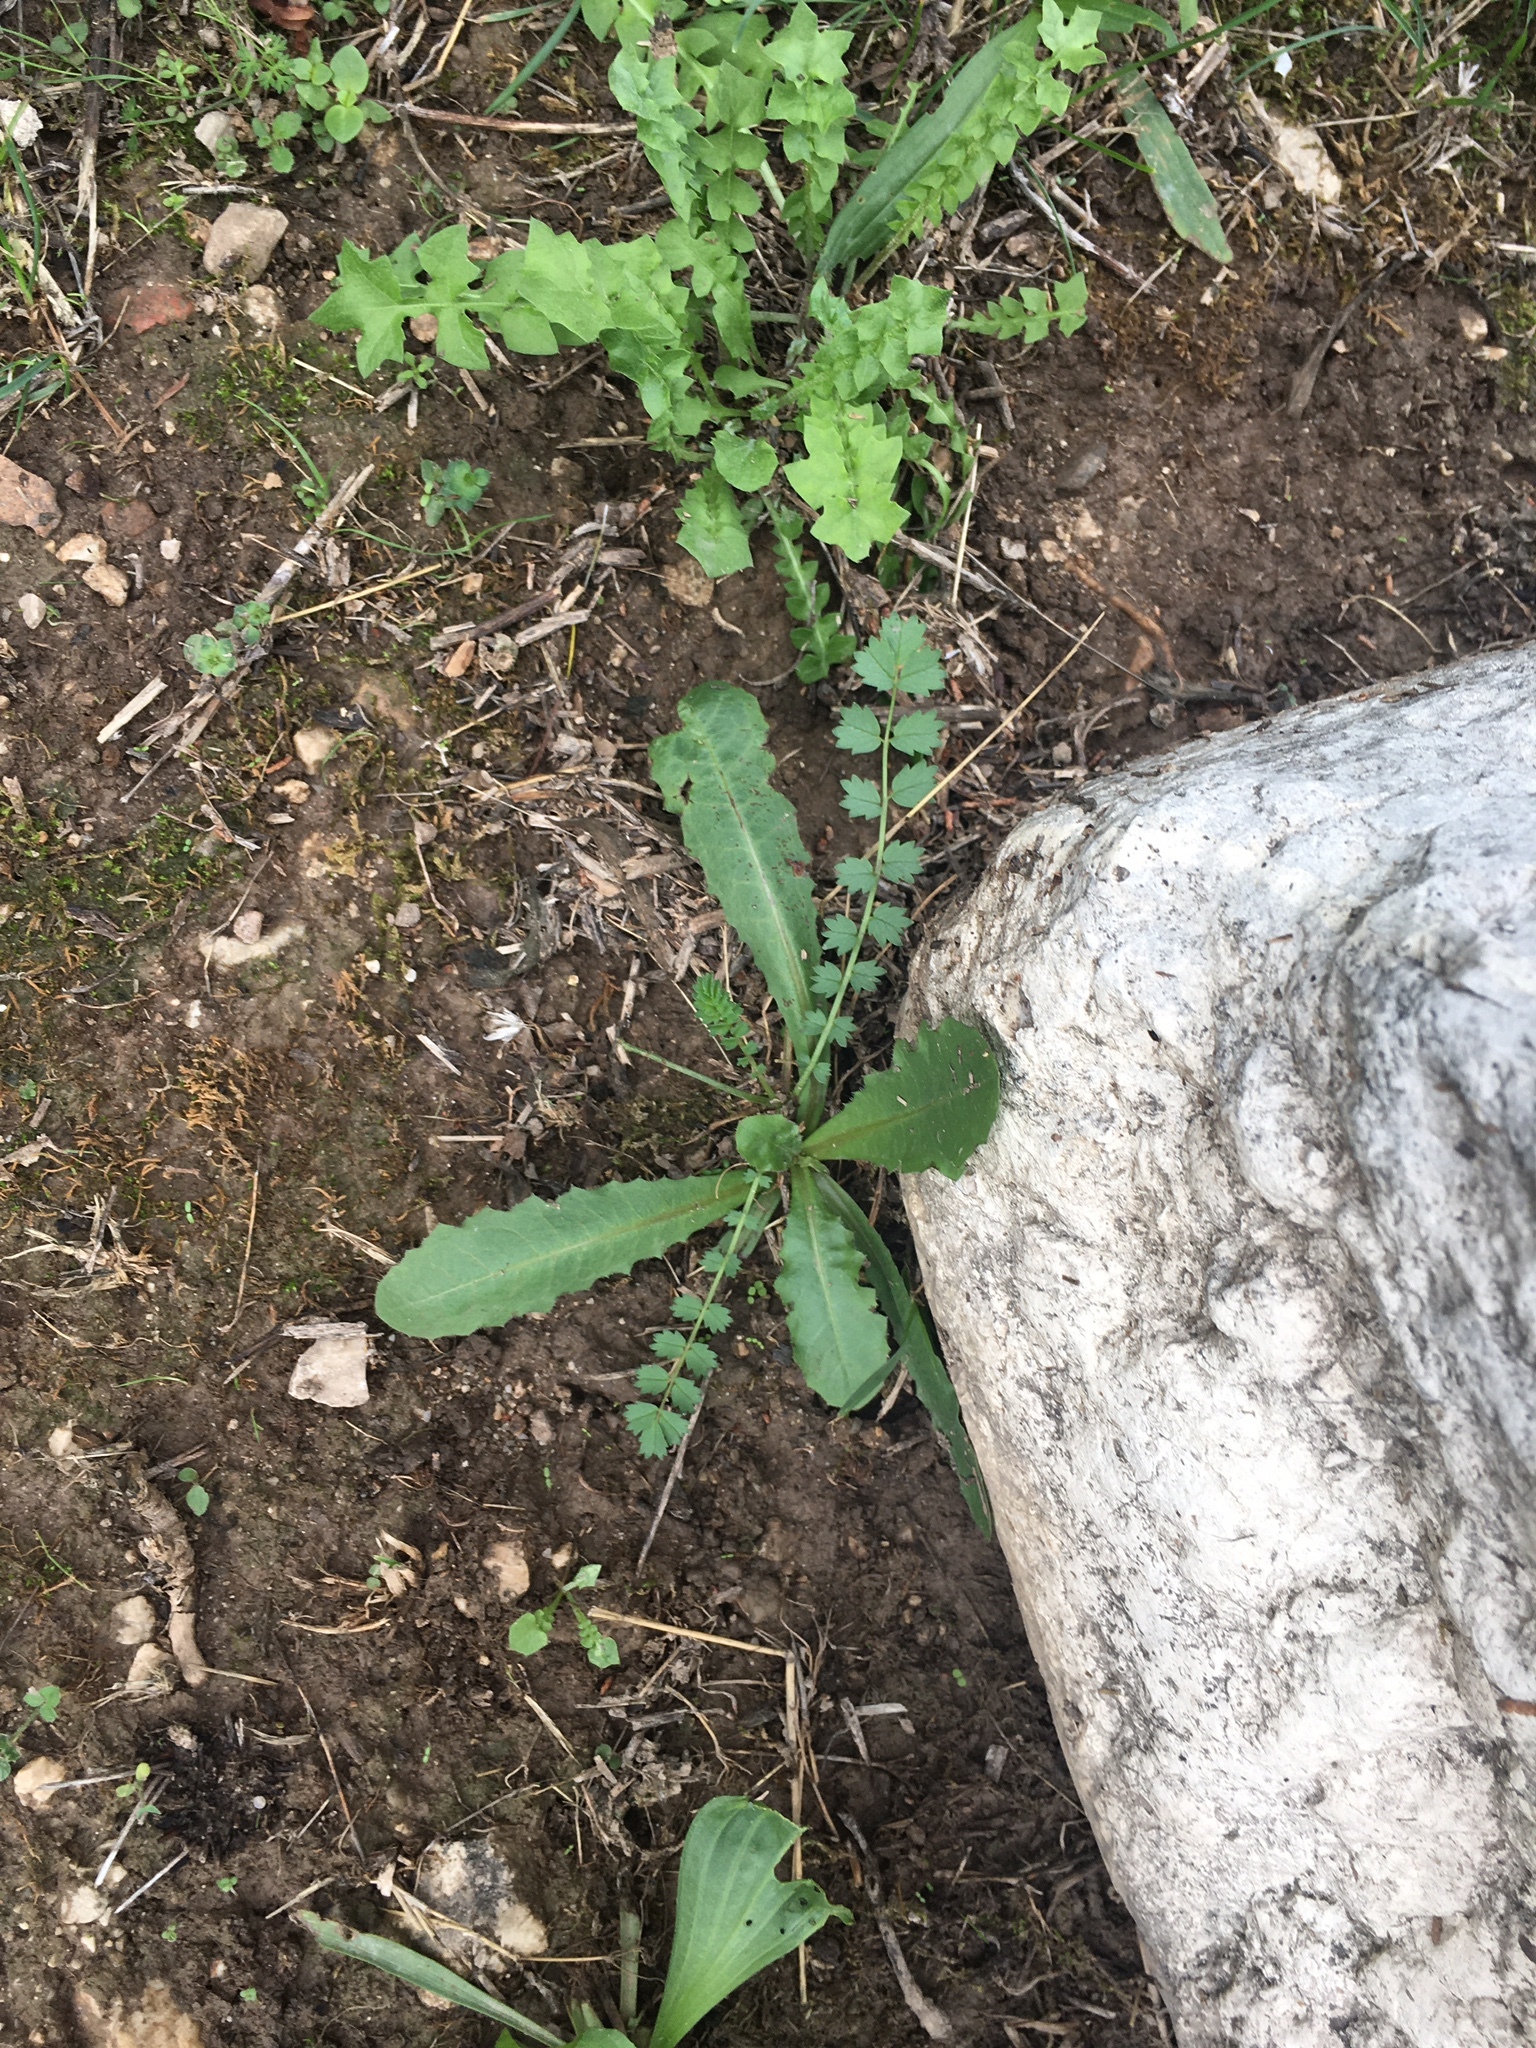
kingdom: Plantae
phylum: Tracheophyta
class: Magnoliopsida
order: Asterales
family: Asteraceae
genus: Taraxacum
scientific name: Taraxacum officinale
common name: Common dandelion
